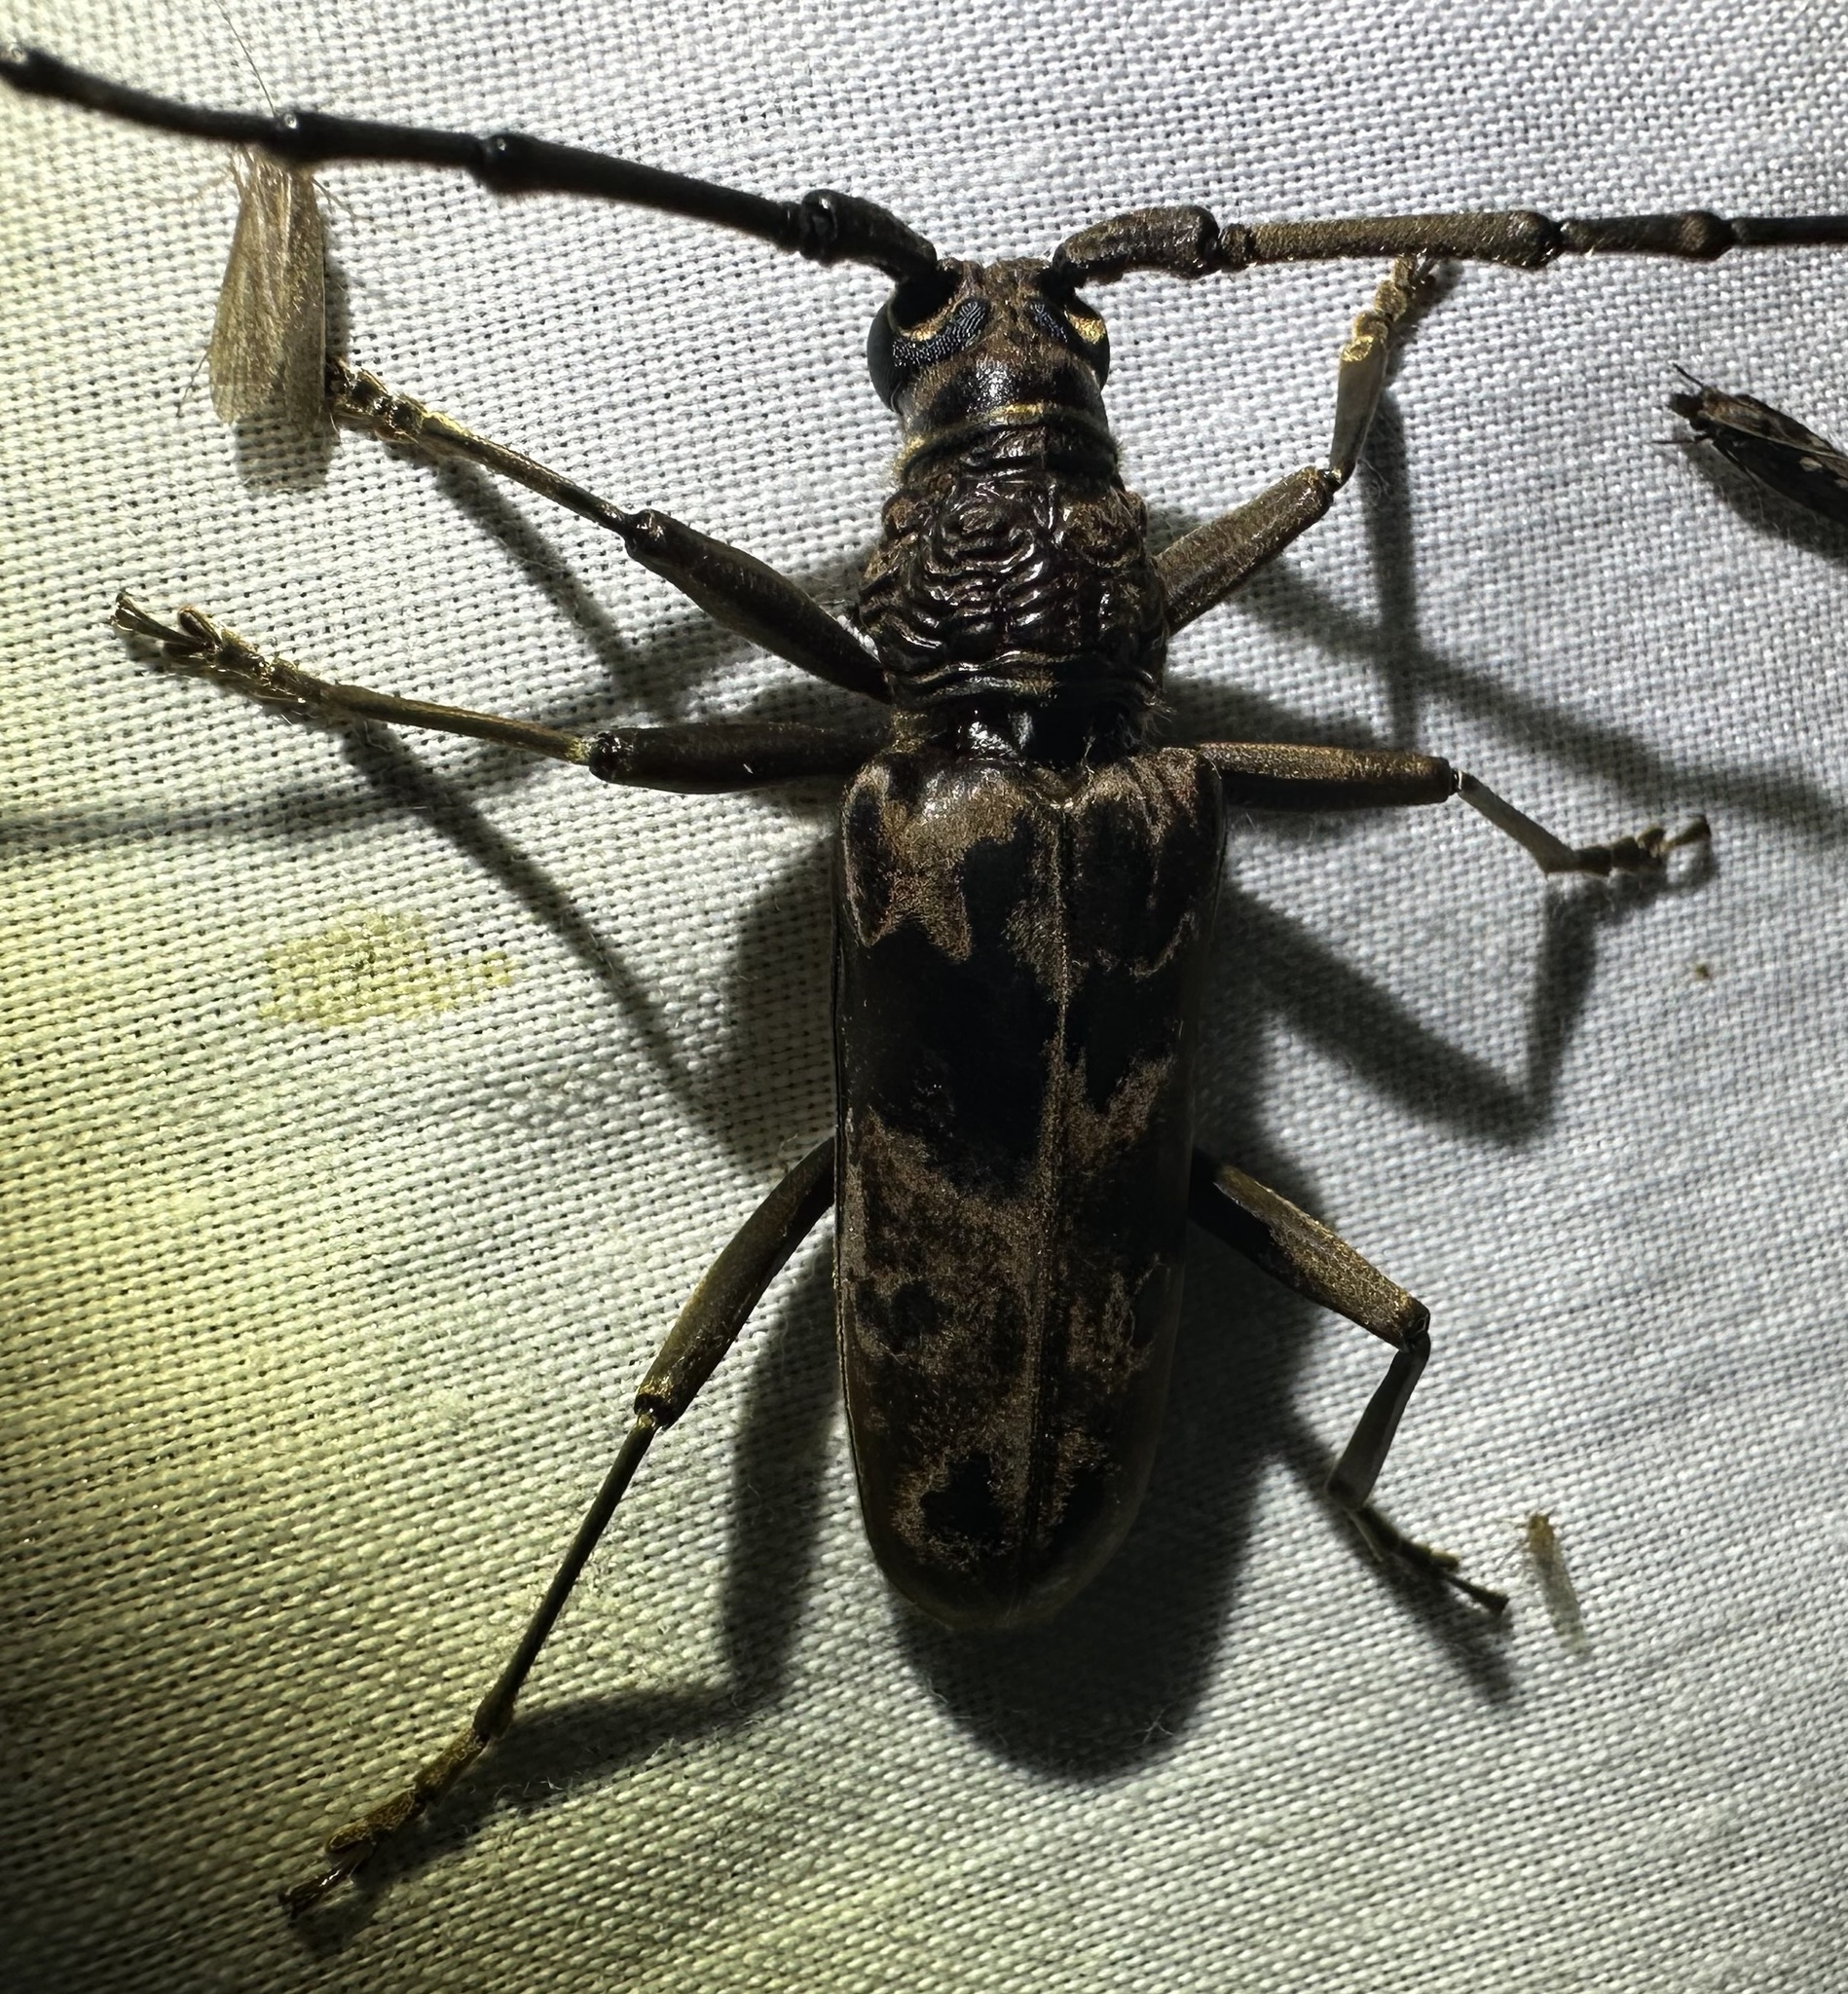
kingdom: Animalia
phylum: Arthropoda
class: Insecta
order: Coleoptera
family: Cerambycidae
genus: Pachydissus
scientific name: Pachydissus natalensis
